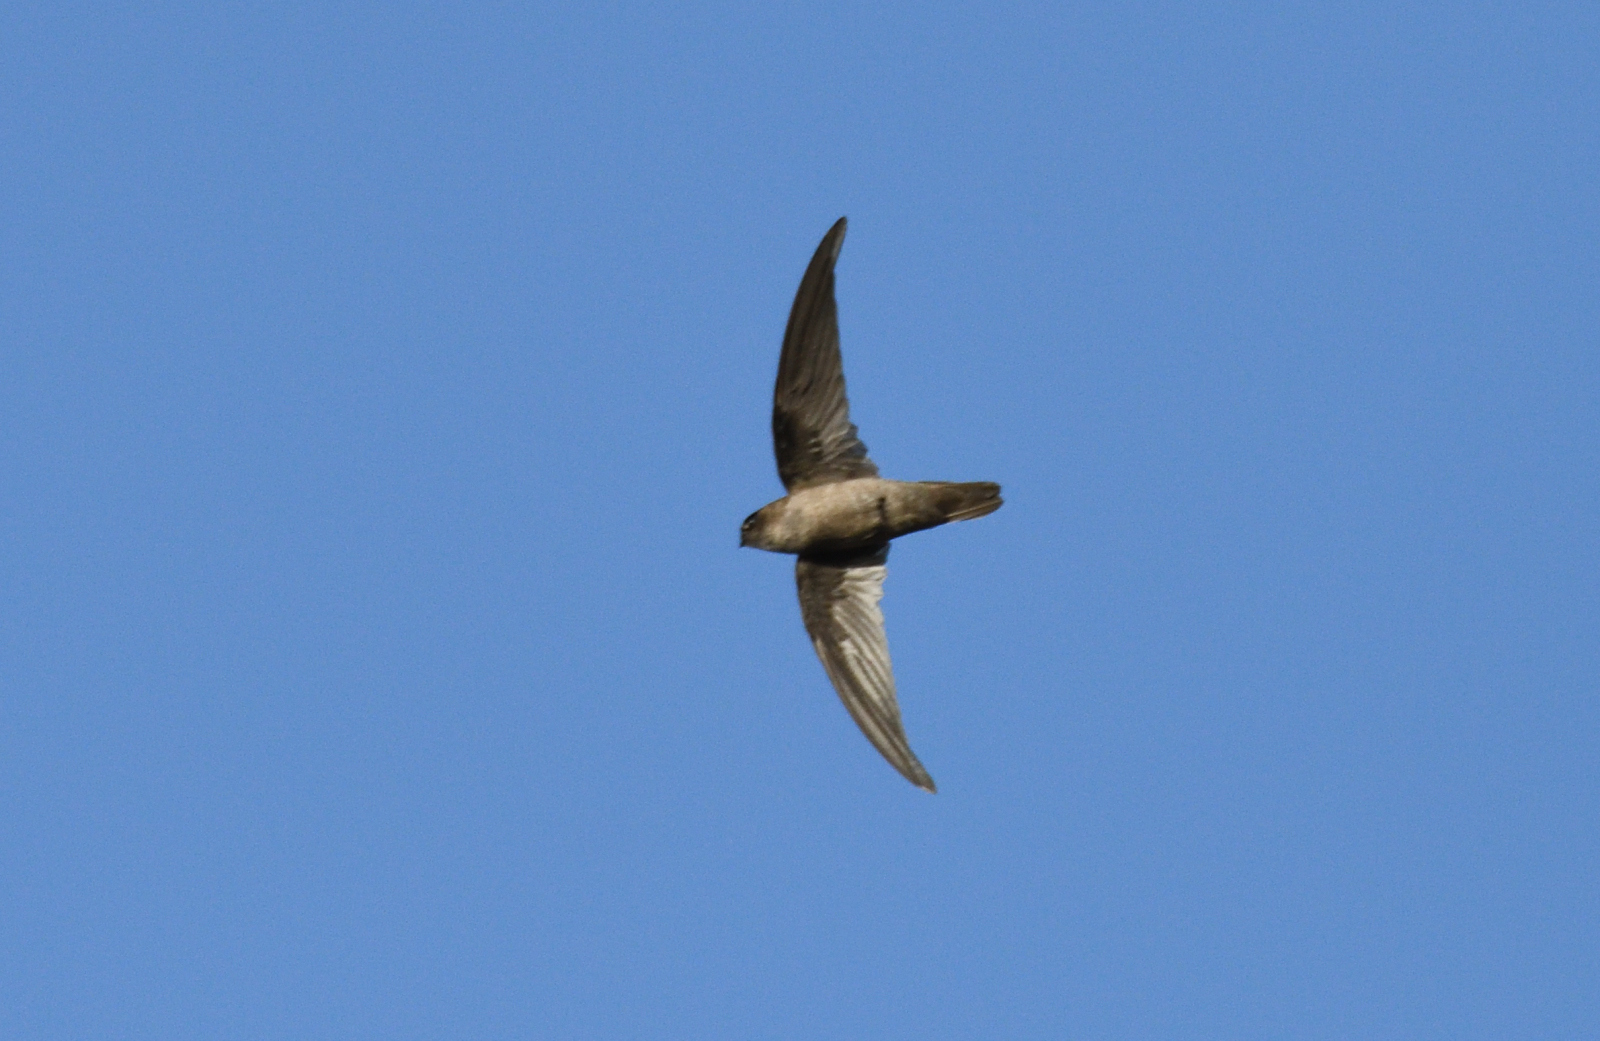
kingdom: Animalia
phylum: Chordata
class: Aves
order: Apodiformes
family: Apodidae
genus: Aerodramus
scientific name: Aerodramus unicolor
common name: Indian swiftlet
